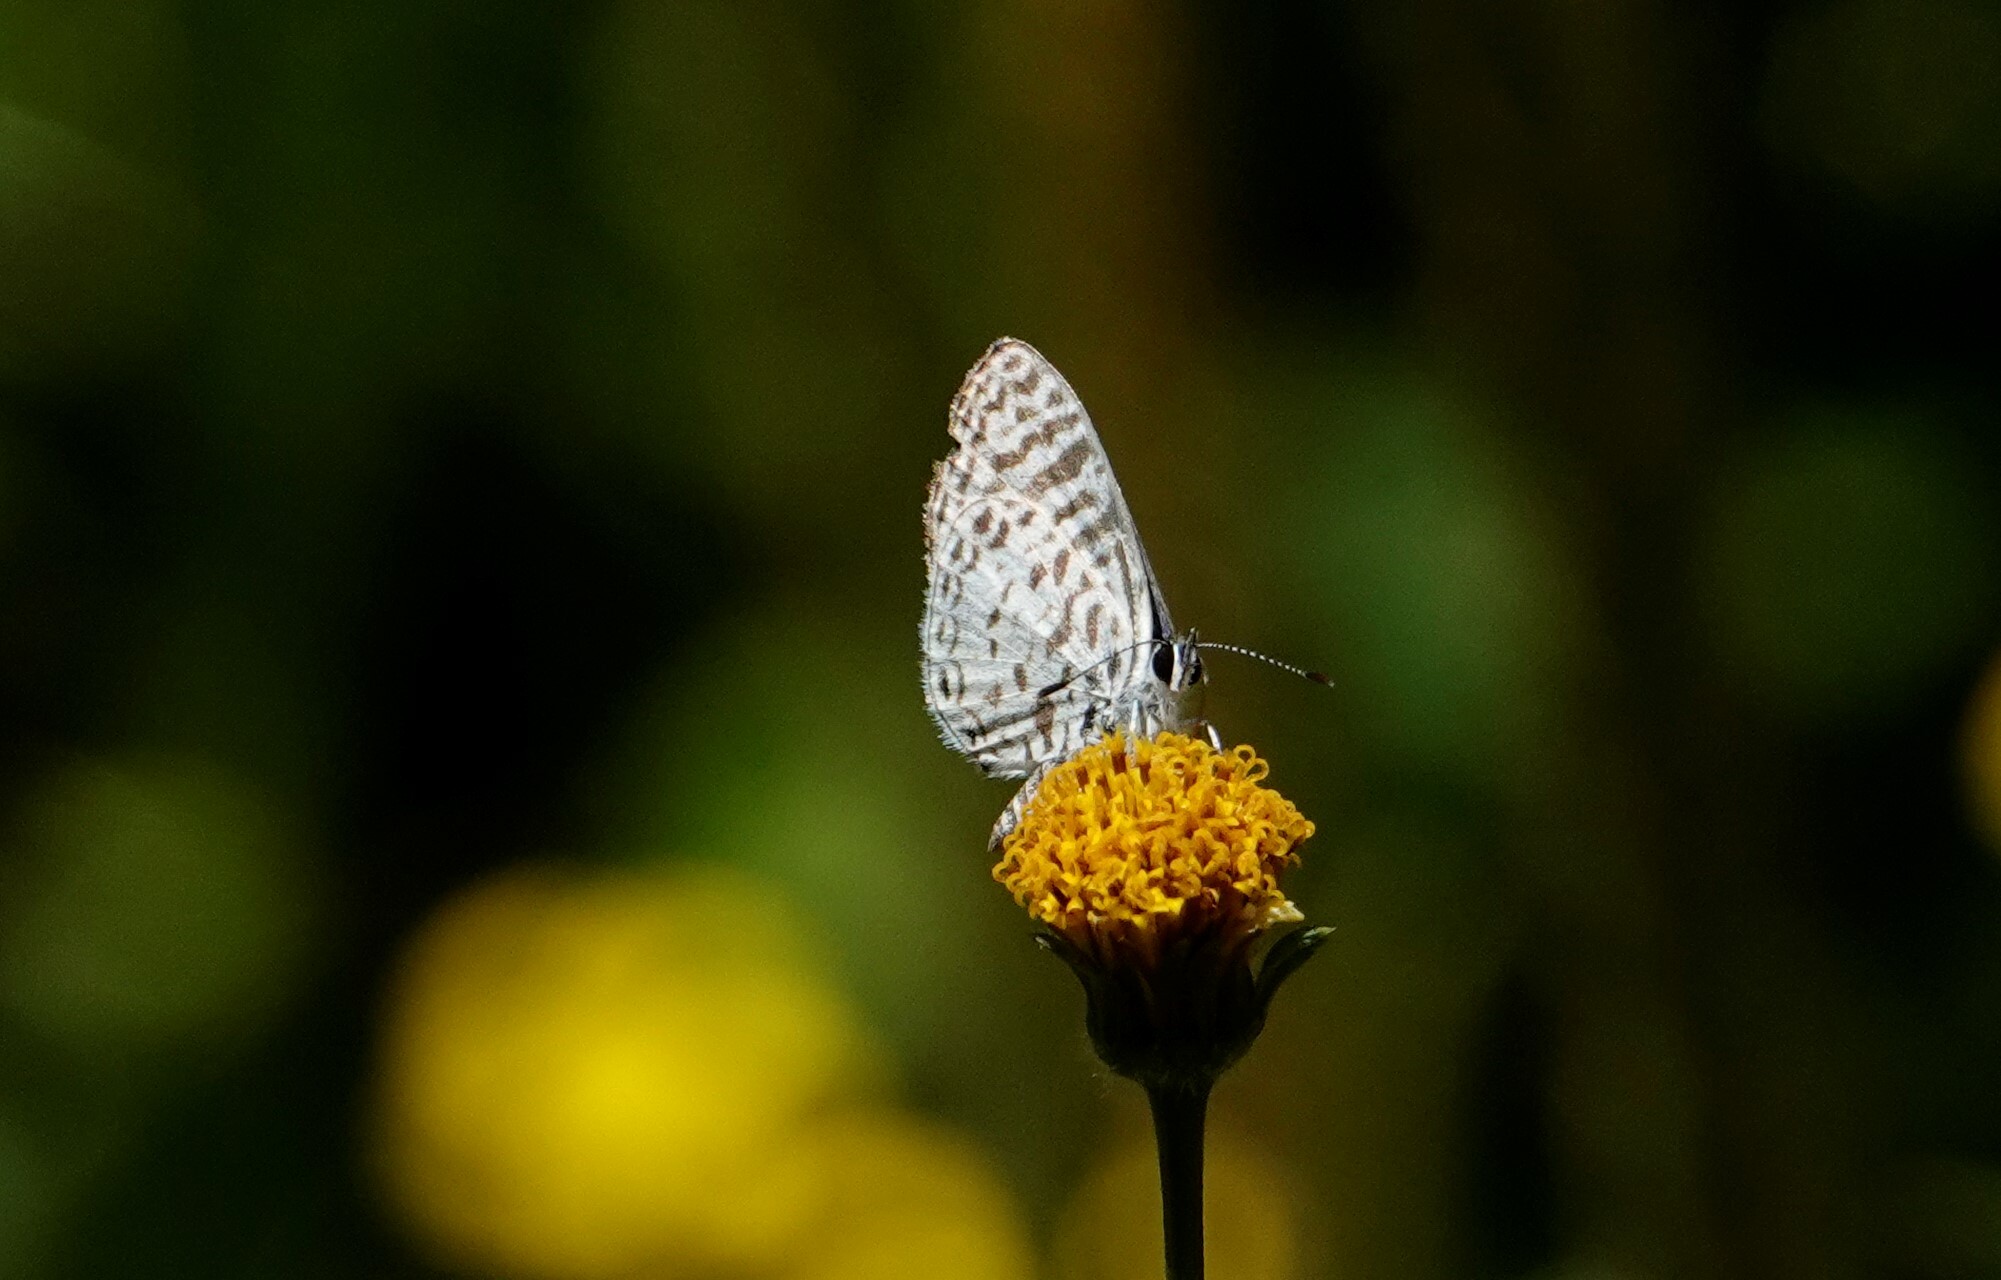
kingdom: Animalia
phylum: Arthropoda
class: Insecta
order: Lepidoptera
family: Lycaenidae
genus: Leptotes
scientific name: Leptotes cassius
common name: Cassius blue
